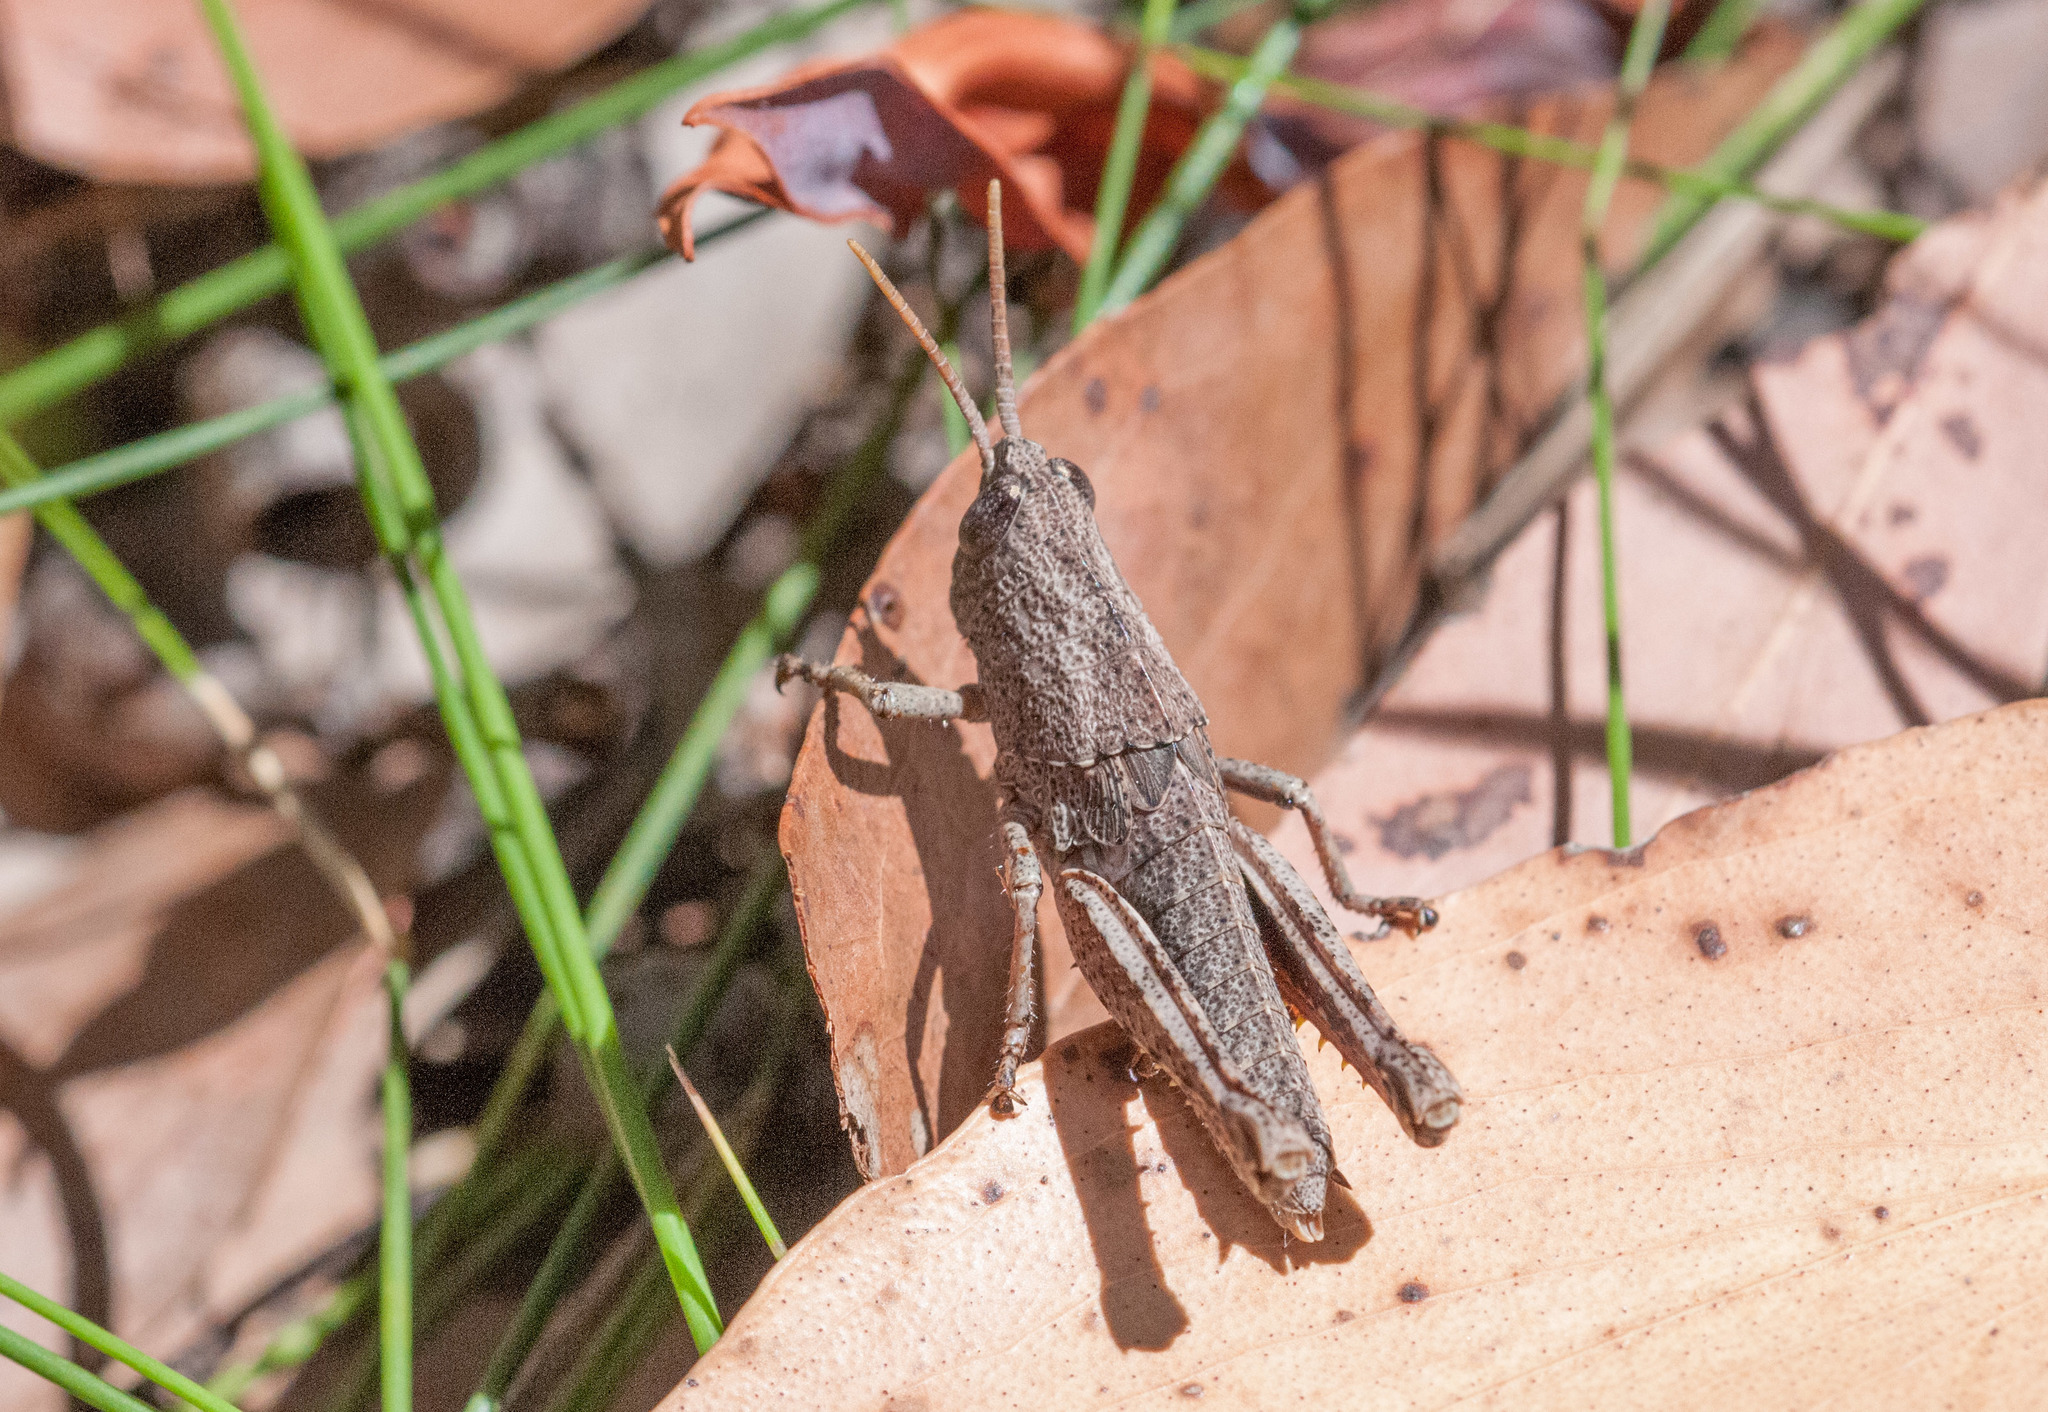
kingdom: Animalia
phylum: Arthropoda
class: Insecta
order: Orthoptera
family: Acrididae
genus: Rhitzala
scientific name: Rhitzala modesta
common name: Short-winged heath grasshopper
